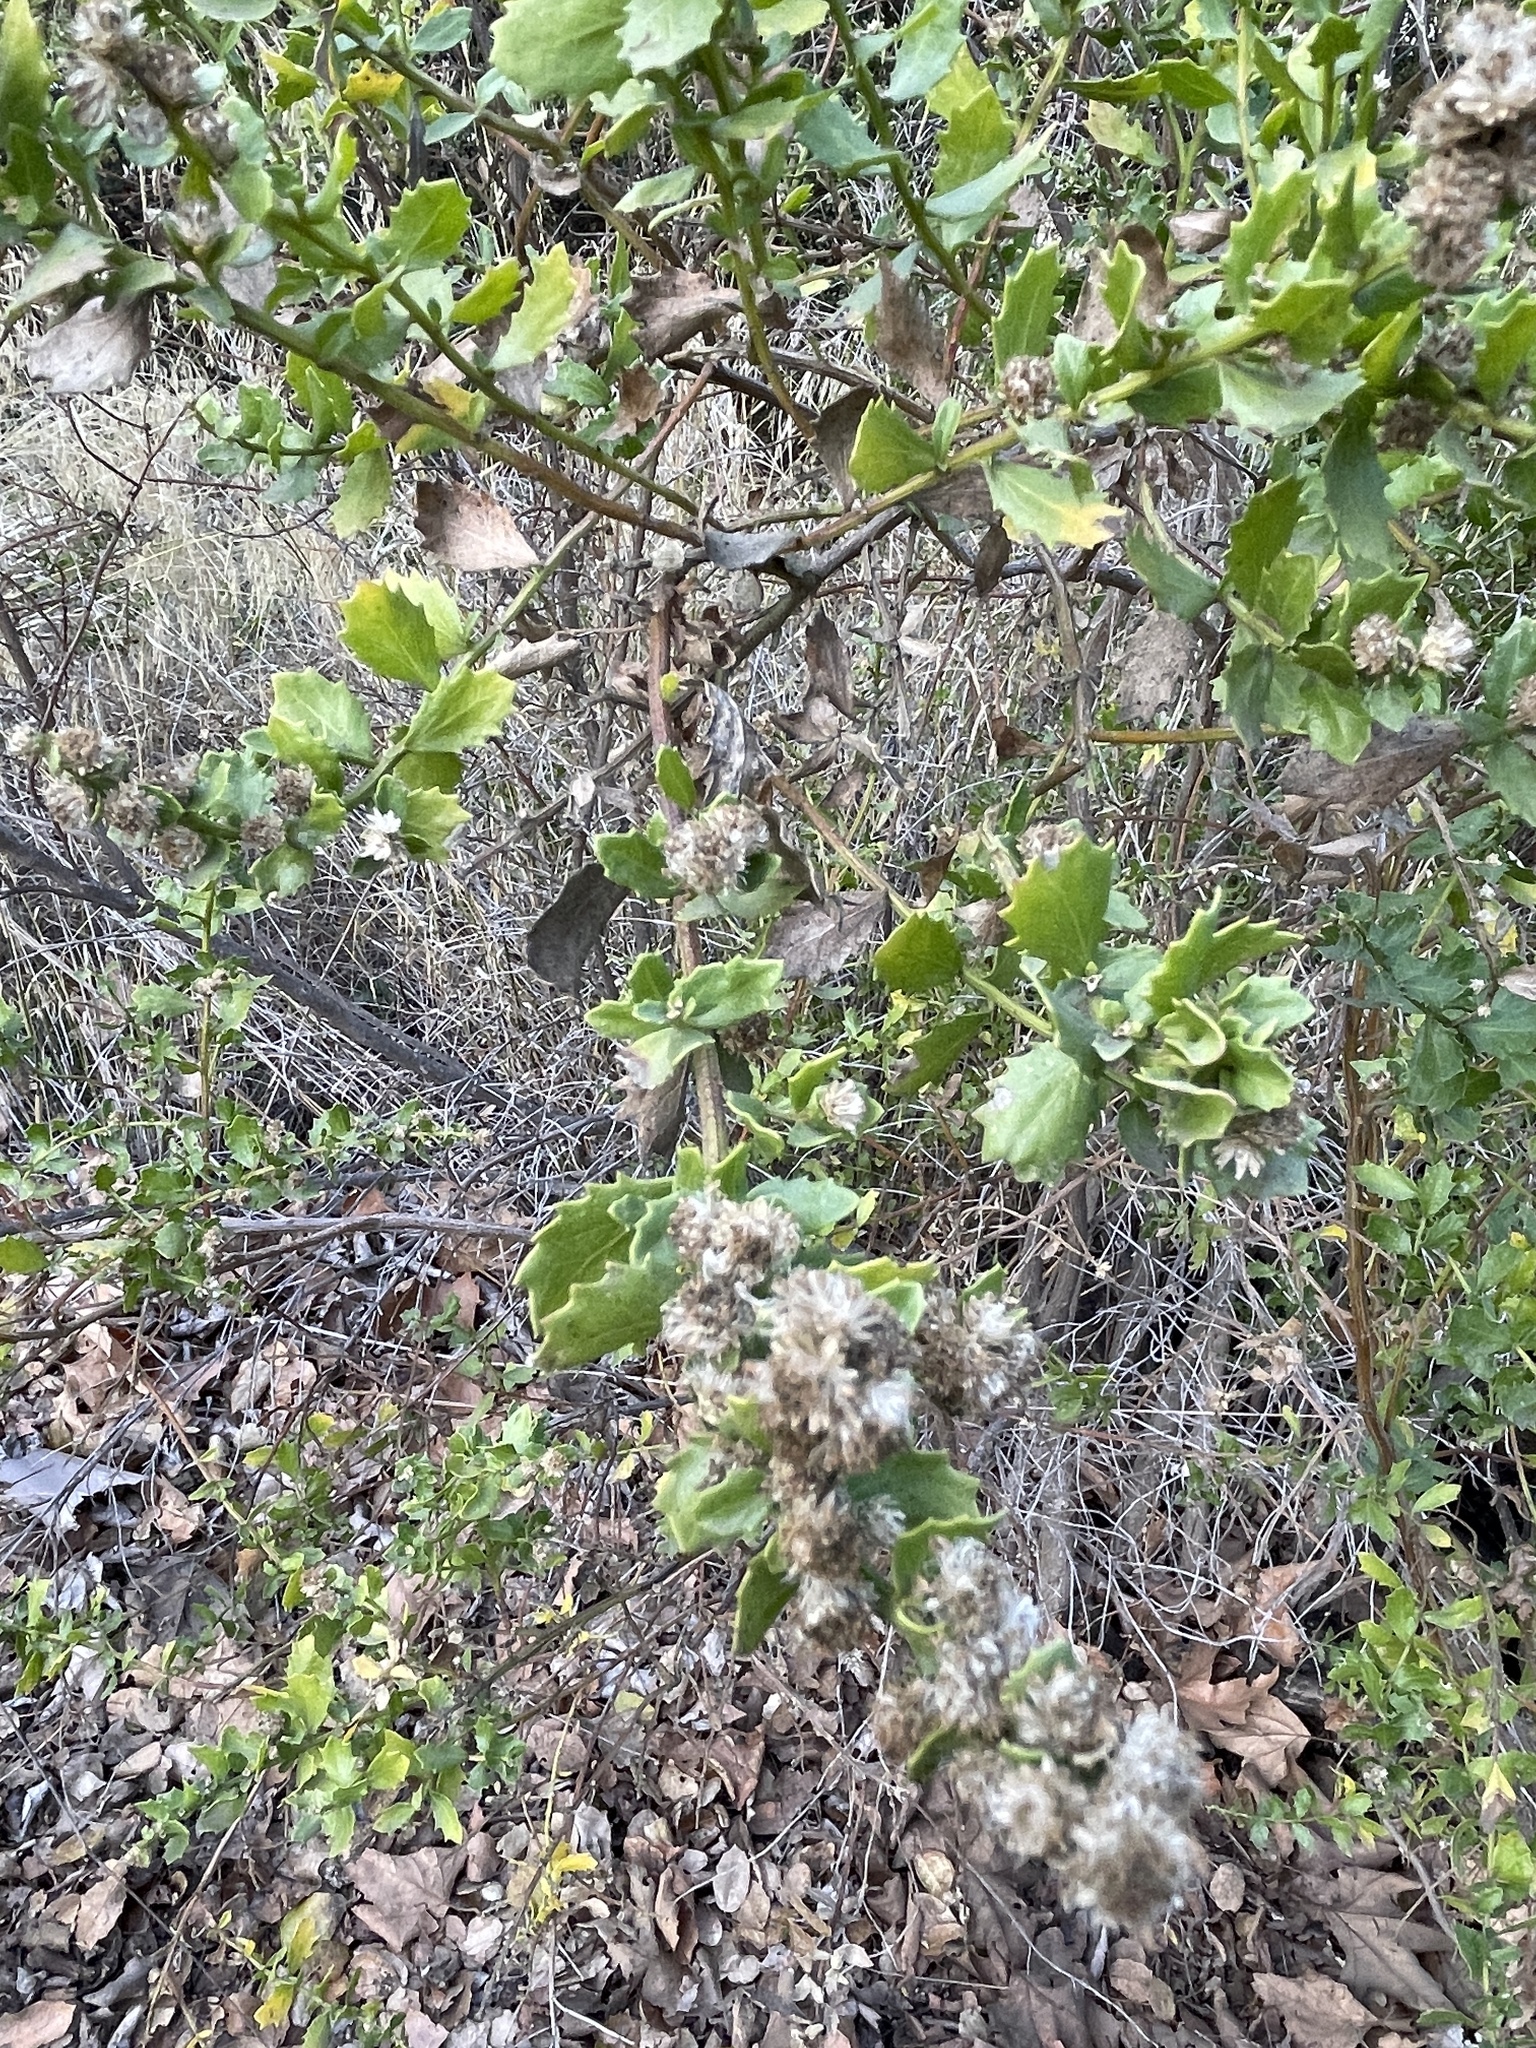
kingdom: Plantae
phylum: Tracheophyta
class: Magnoliopsida
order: Asterales
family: Asteraceae
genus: Baccharis
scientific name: Baccharis pilularis
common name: Coyotebrush
